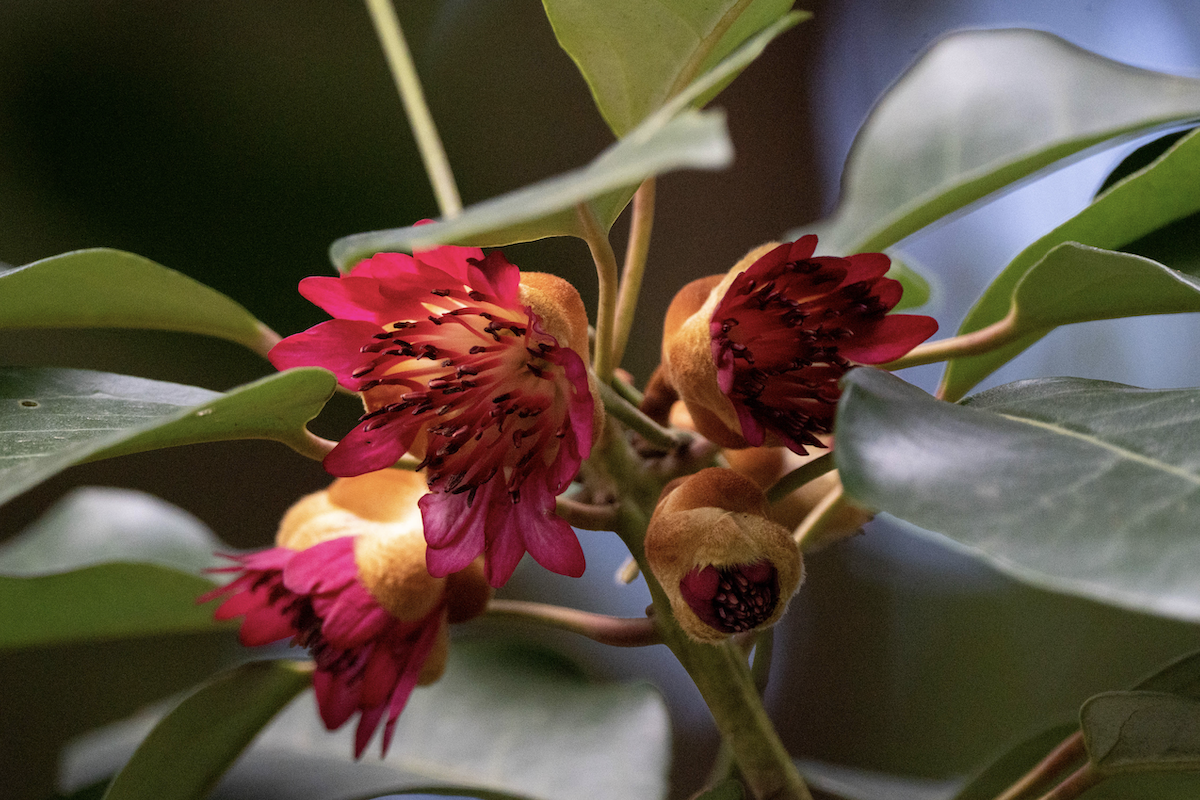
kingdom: Plantae
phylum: Tracheophyta
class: Magnoliopsida
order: Saxifragales
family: Hamamelidaceae
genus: Rhodoleia
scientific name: Rhodoleia championii
